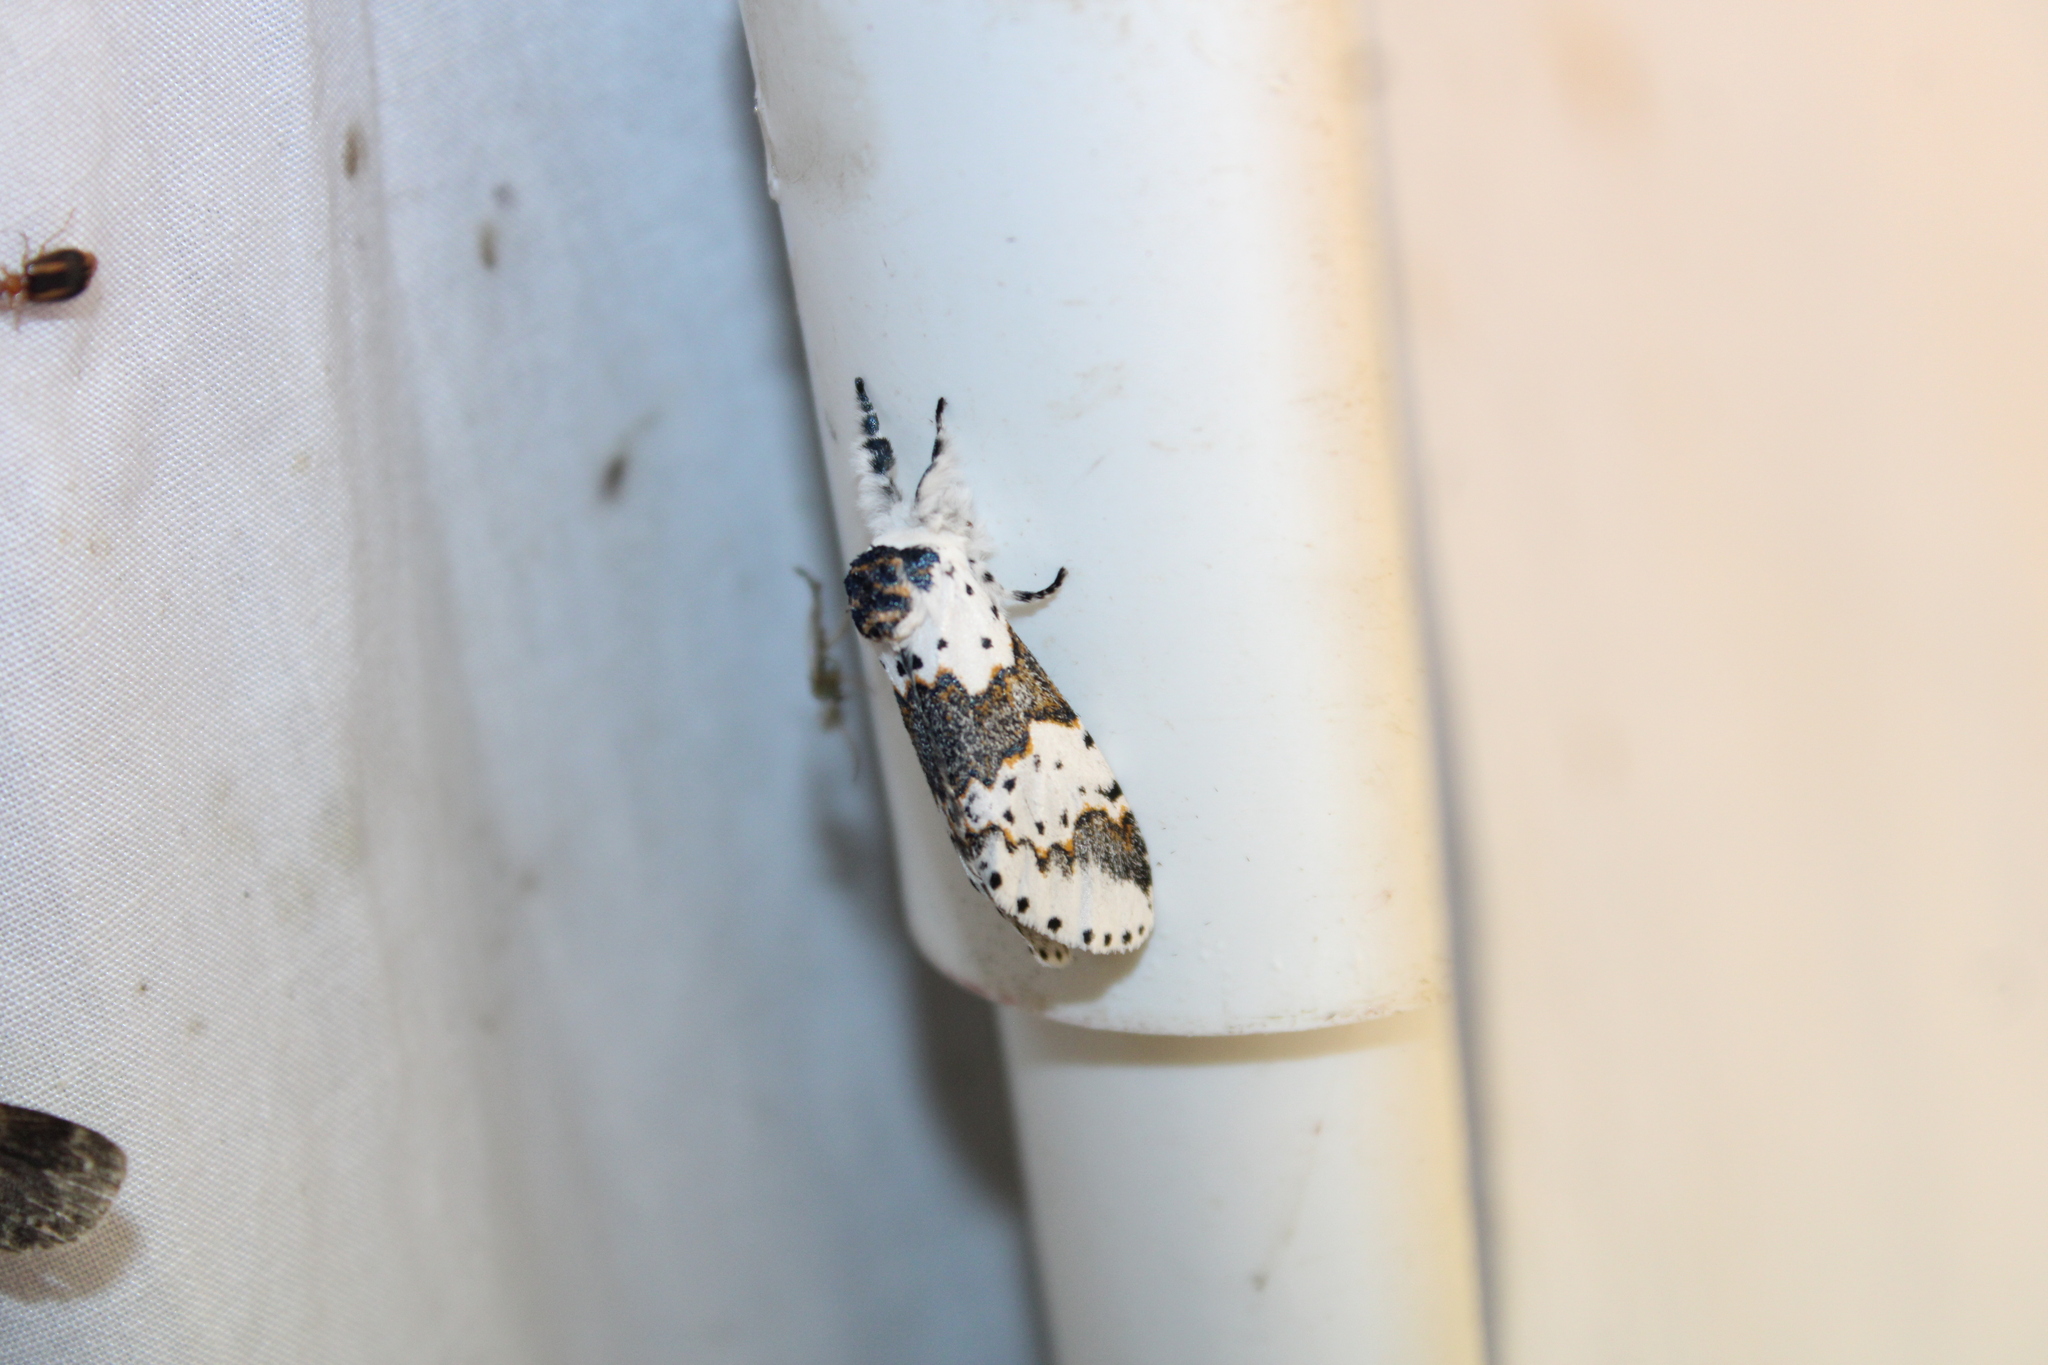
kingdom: Animalia
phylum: Arthropoda
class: Insecta
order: Lepidoptera
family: Notodontidae
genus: Furcula
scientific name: Furcula borealis
